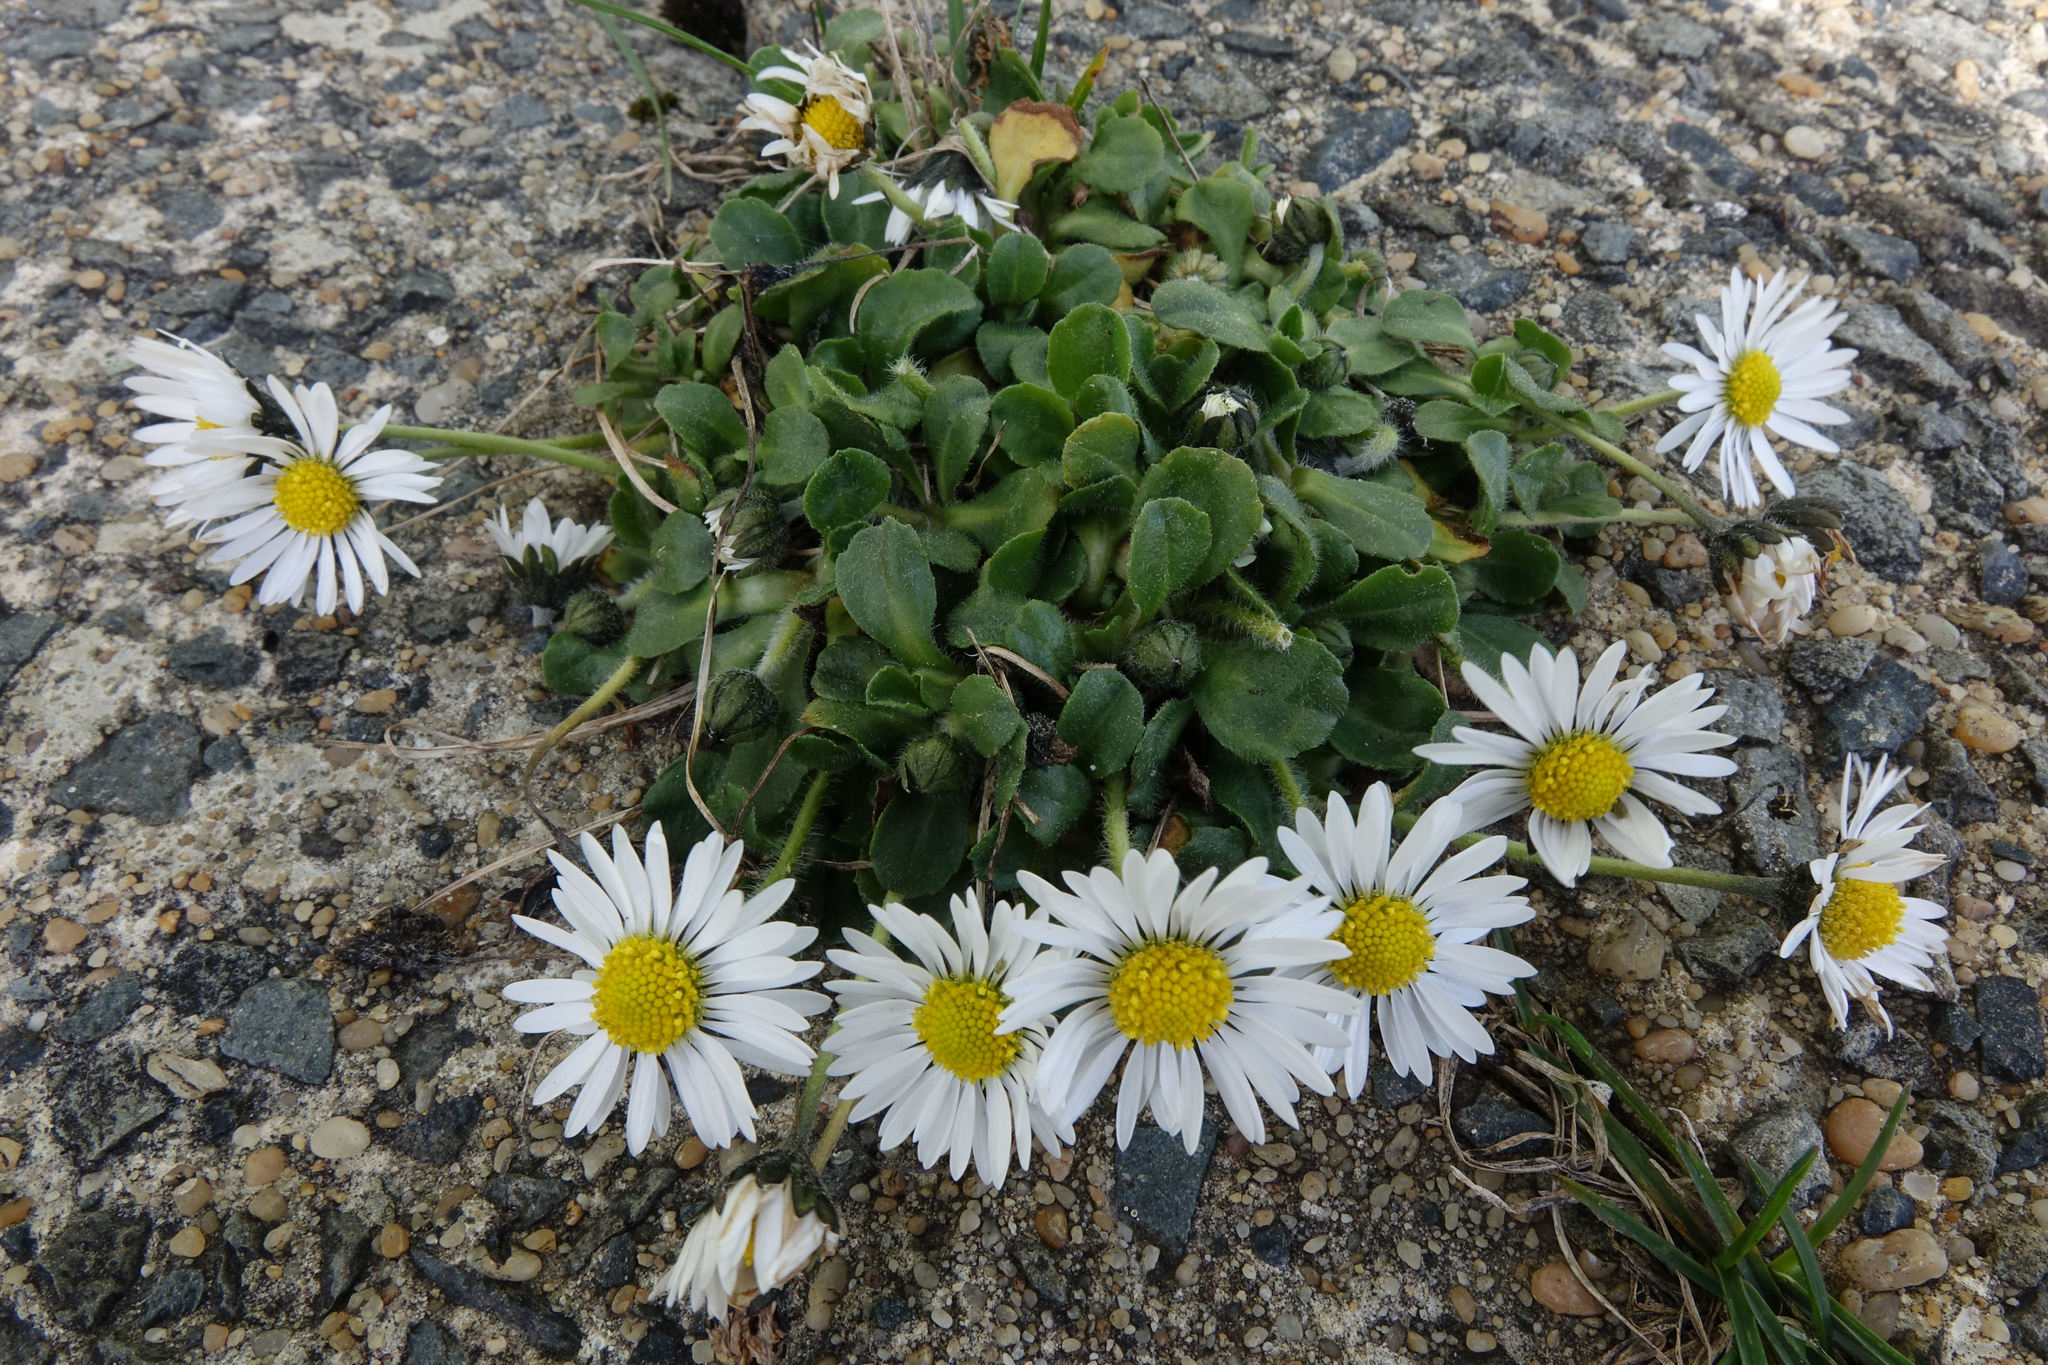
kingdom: Plantae
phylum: Tracheophyta
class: Magnoliopsida
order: Asterales
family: Asteraceae
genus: Bellis
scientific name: Bellis perennis
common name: Lawndaisy
